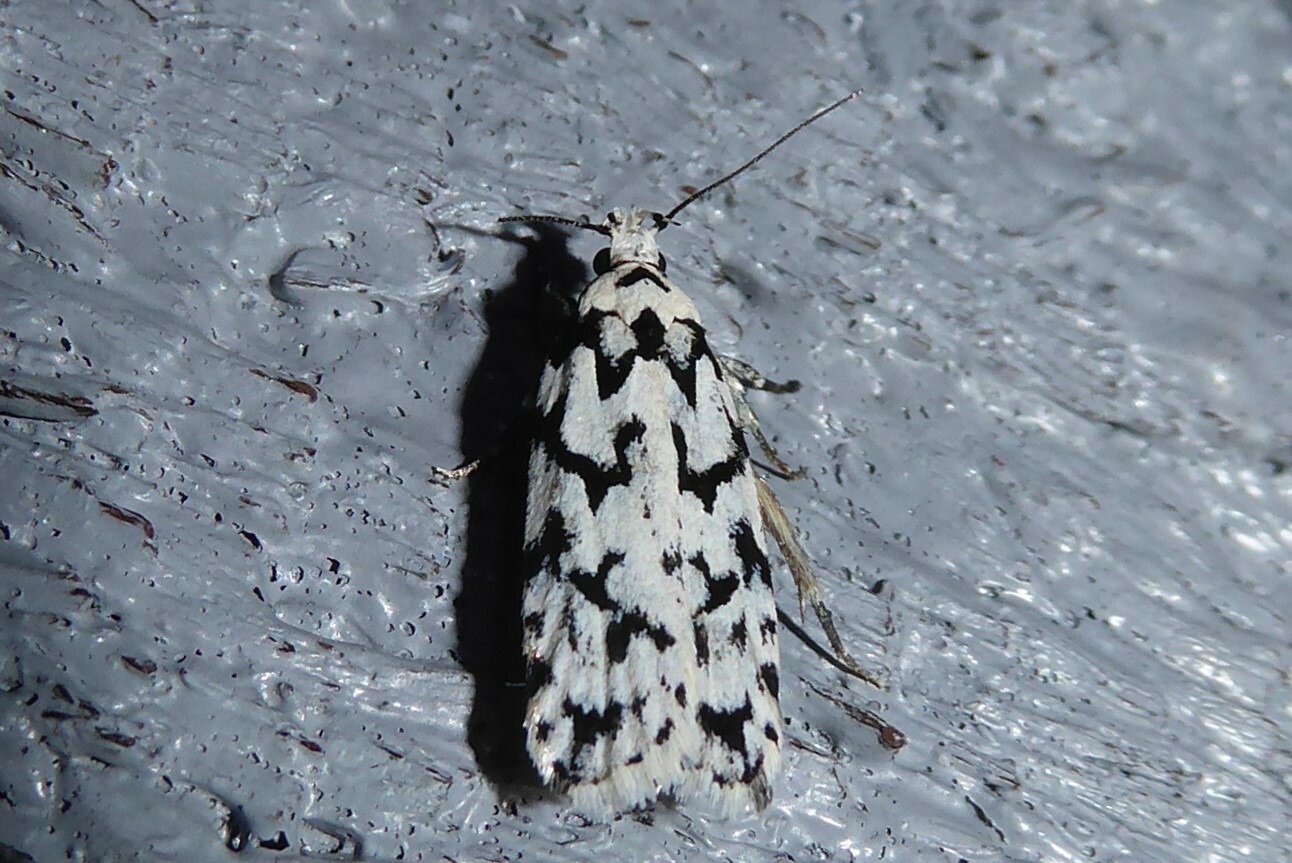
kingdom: Animalia
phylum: Arthropoda
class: Insecta
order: Lepidoptera
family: Oecophoridae
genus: Izatha
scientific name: Izatha katadiktya
